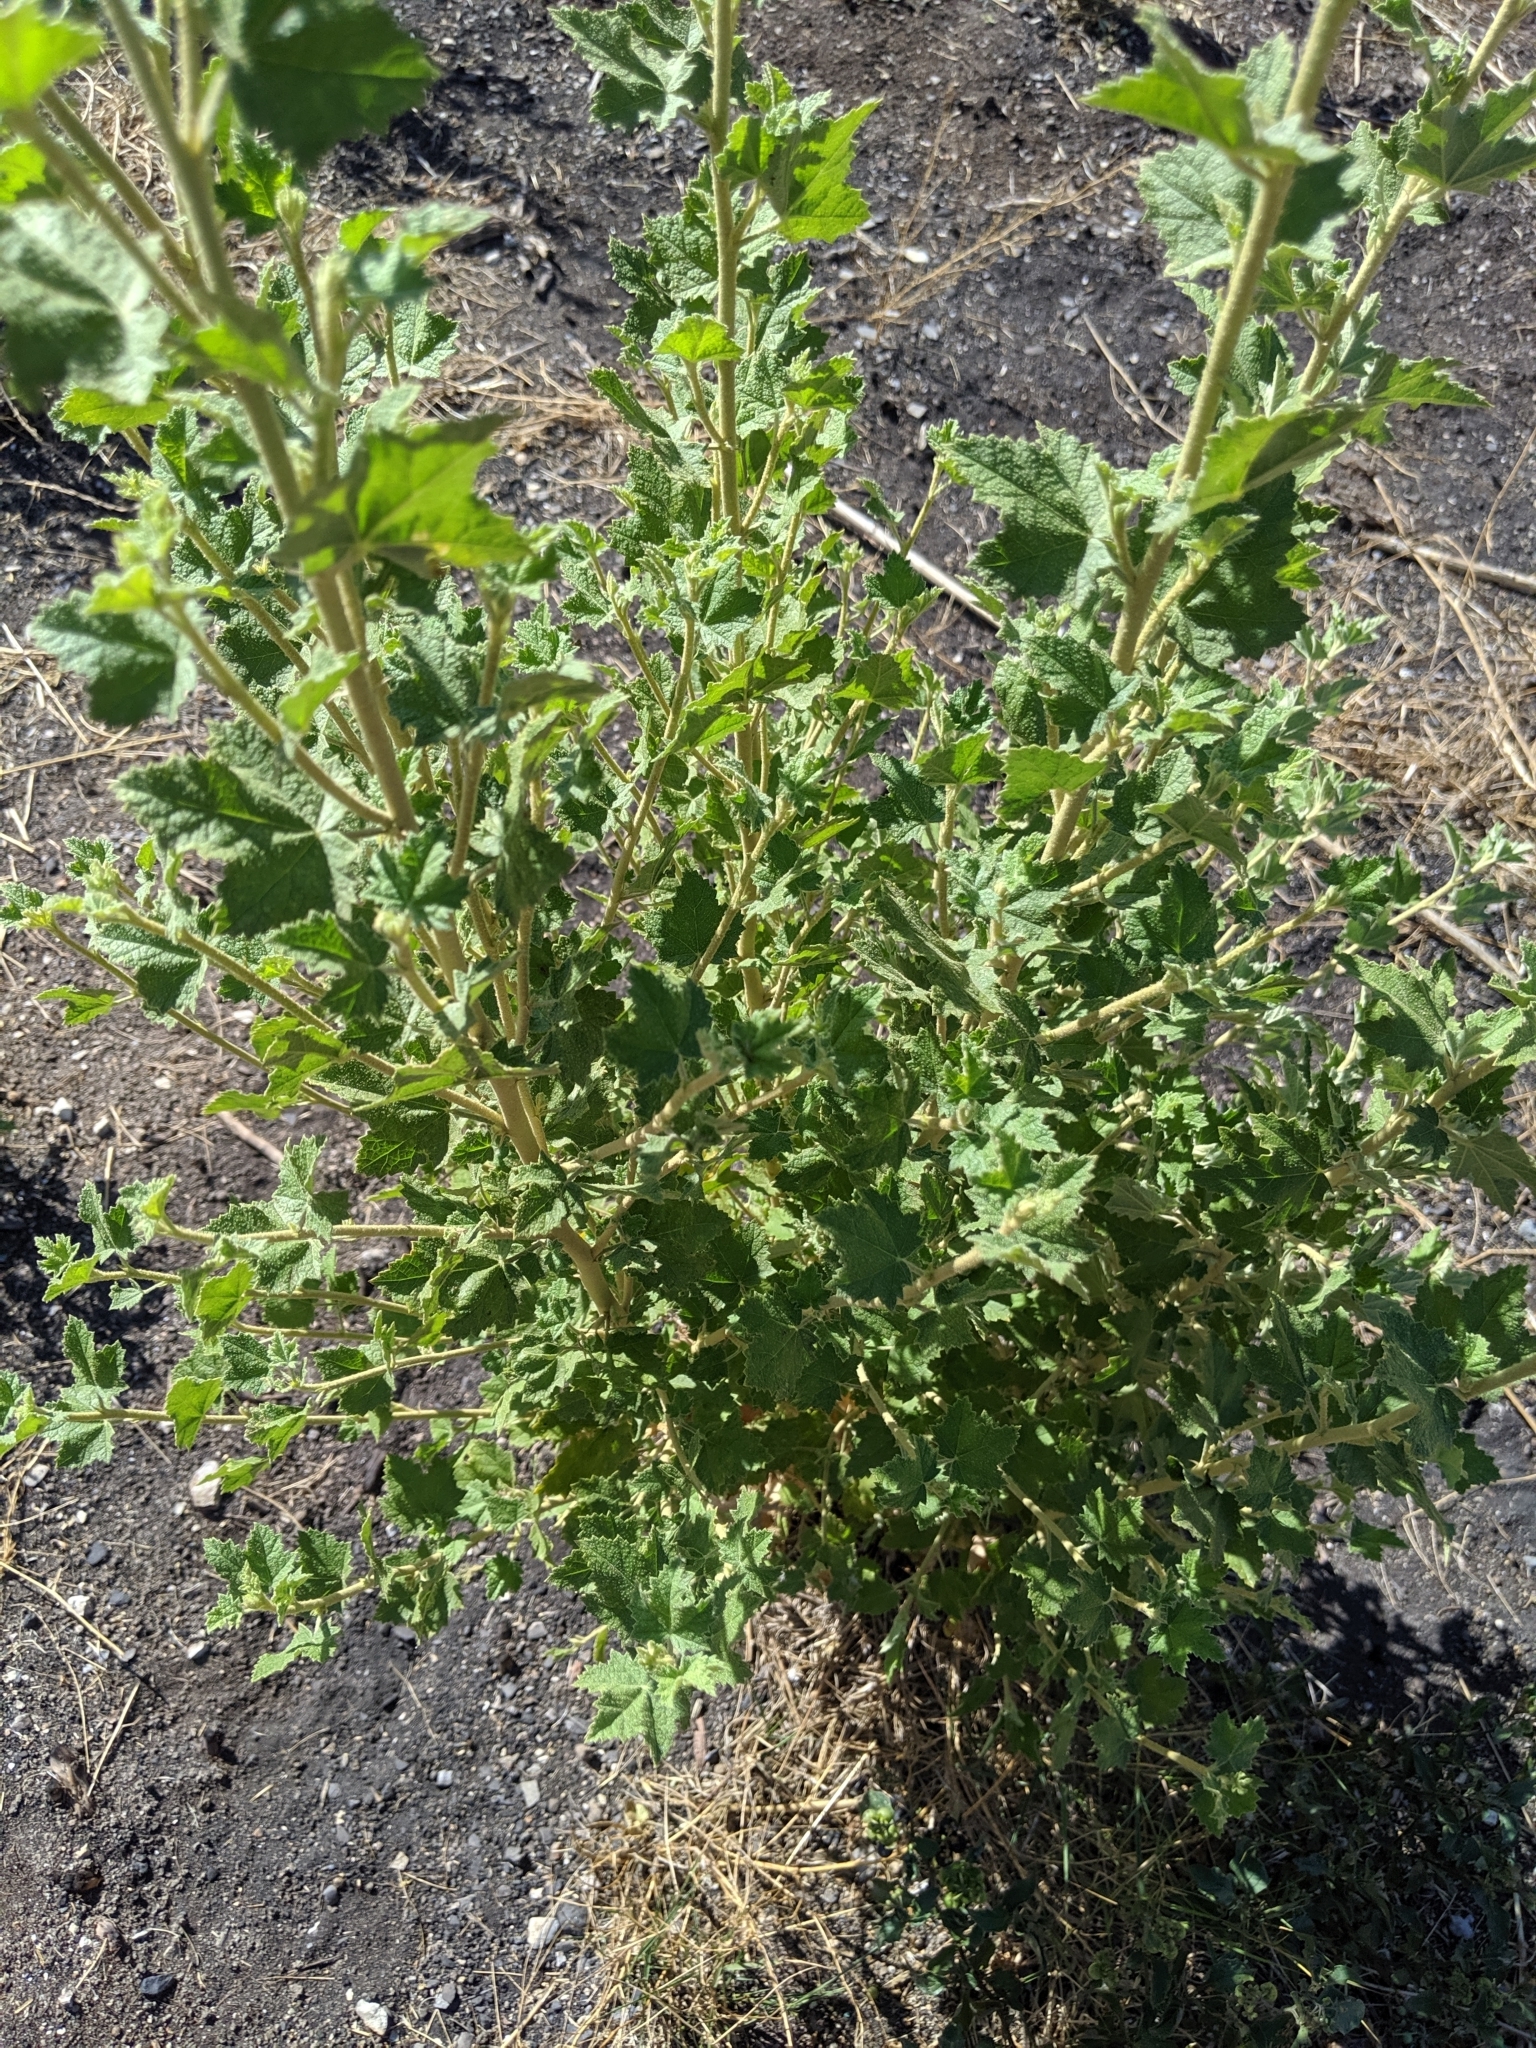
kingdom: Plantae
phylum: Tracheophyta
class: Magnoliopsida
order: Malvales
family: Malvaceae
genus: Malacothamnus
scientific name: Malacothamnus fasciculatus
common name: Sant cruz island bush-mallow
